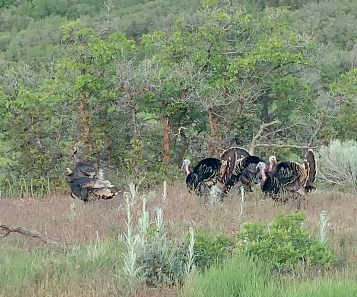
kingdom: Animalia
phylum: Chordata
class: Aves
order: Galliformes
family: Phasianidae
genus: Meleagris
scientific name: Meleagris gallopavo
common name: Wild turkey
